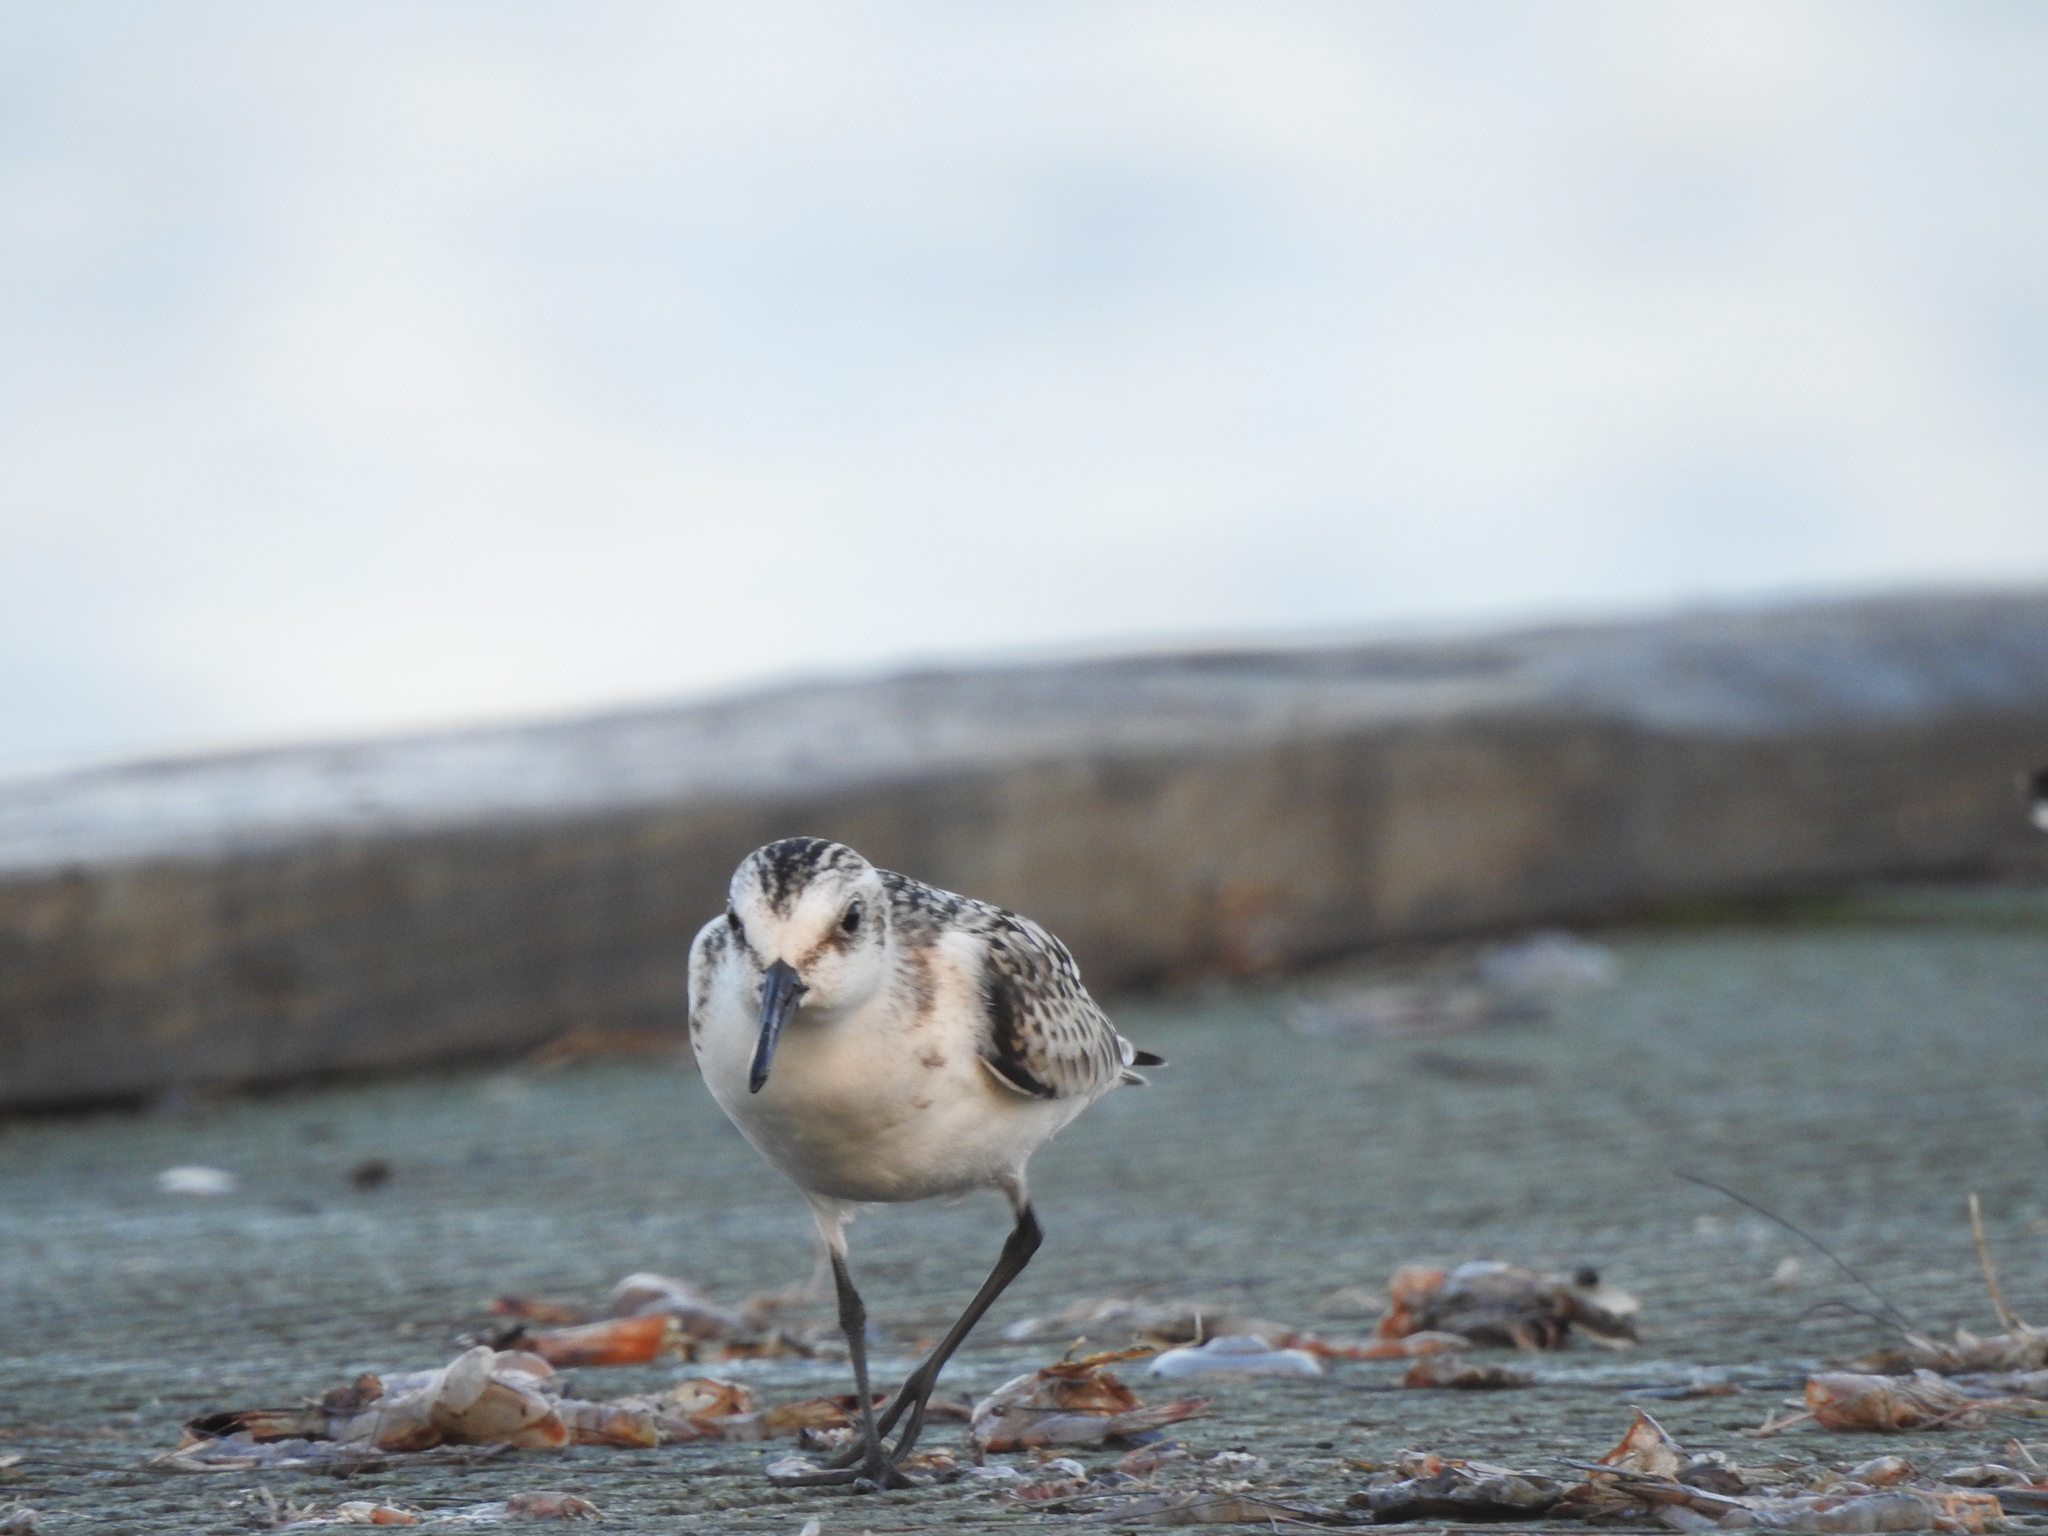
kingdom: Animalia
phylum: Chordata
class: Aves
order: Charadriiformes
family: Scolopacidae
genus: Calidris
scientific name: Calidris alba
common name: Sanderling
